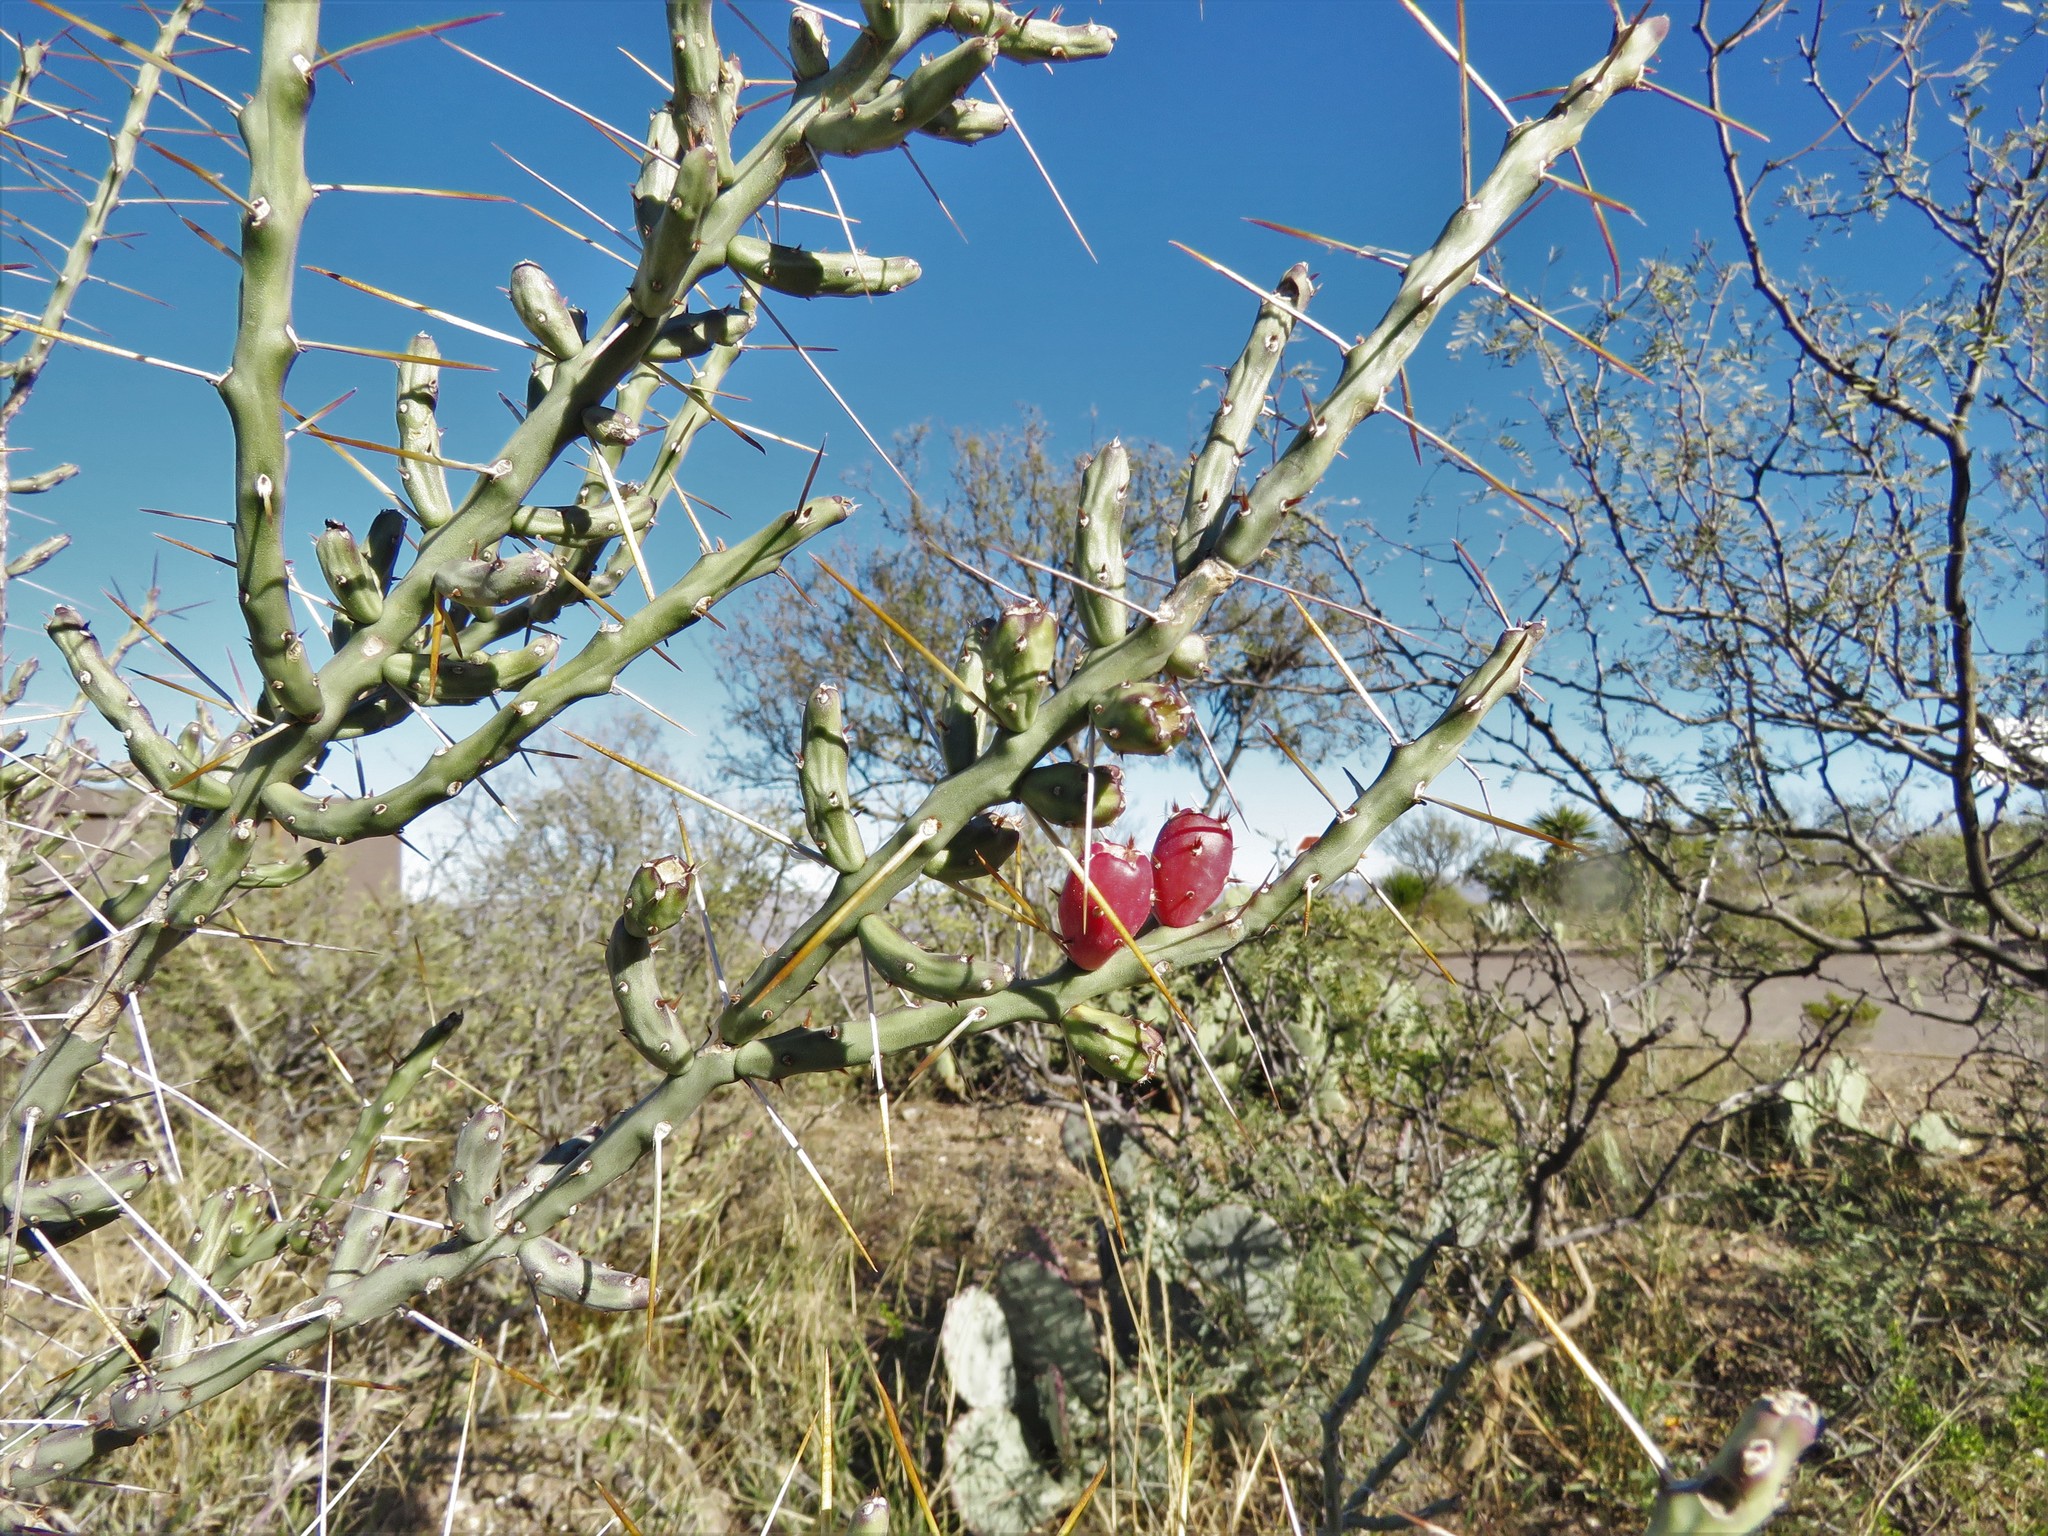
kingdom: Plantae
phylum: Tracheophyta
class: Magnoliopsida
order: Caryophyllales
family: Cactaceae
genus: Cylindropuntia
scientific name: Cylindropuntia leptocaulis
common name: Christmas cactus
